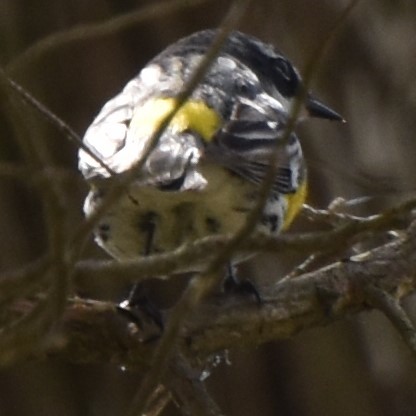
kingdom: Animalia
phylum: Chordata
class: Aves
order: Passeriformes
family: Parulidae
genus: Setophaga
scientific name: Setophaga coronata
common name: Myrtle warbler
